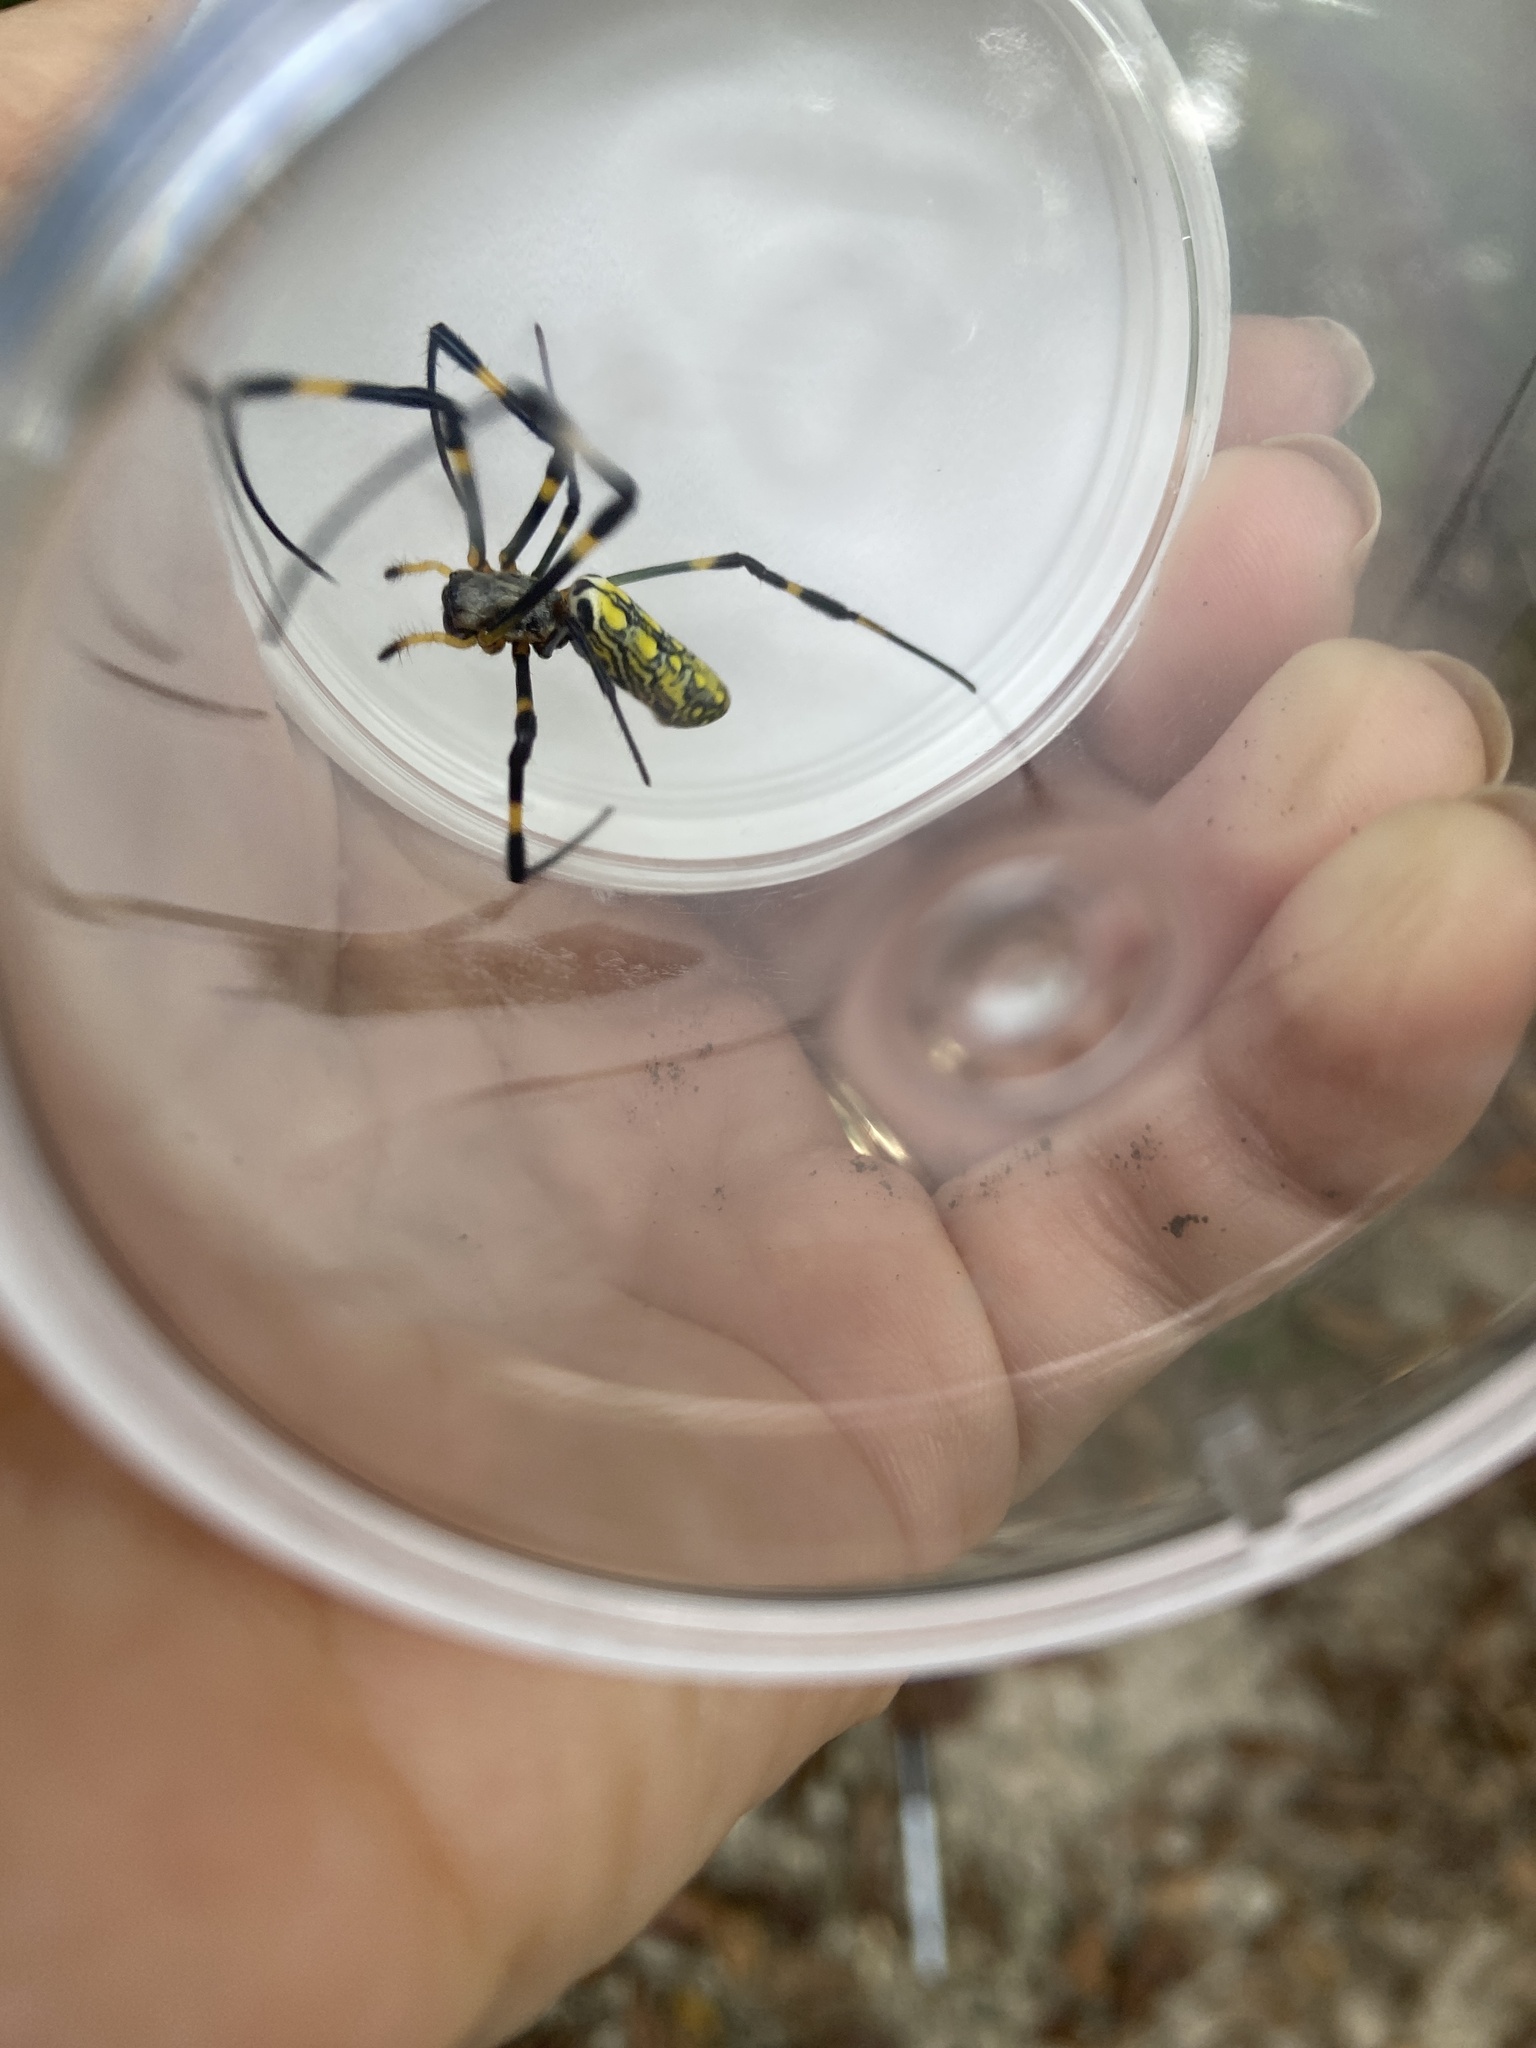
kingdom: Animalia
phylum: Arthropoda
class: Arachnida
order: Araneae
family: Araneidae
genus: Trichonephila
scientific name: Trichonephila clavata
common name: Jorō spider
